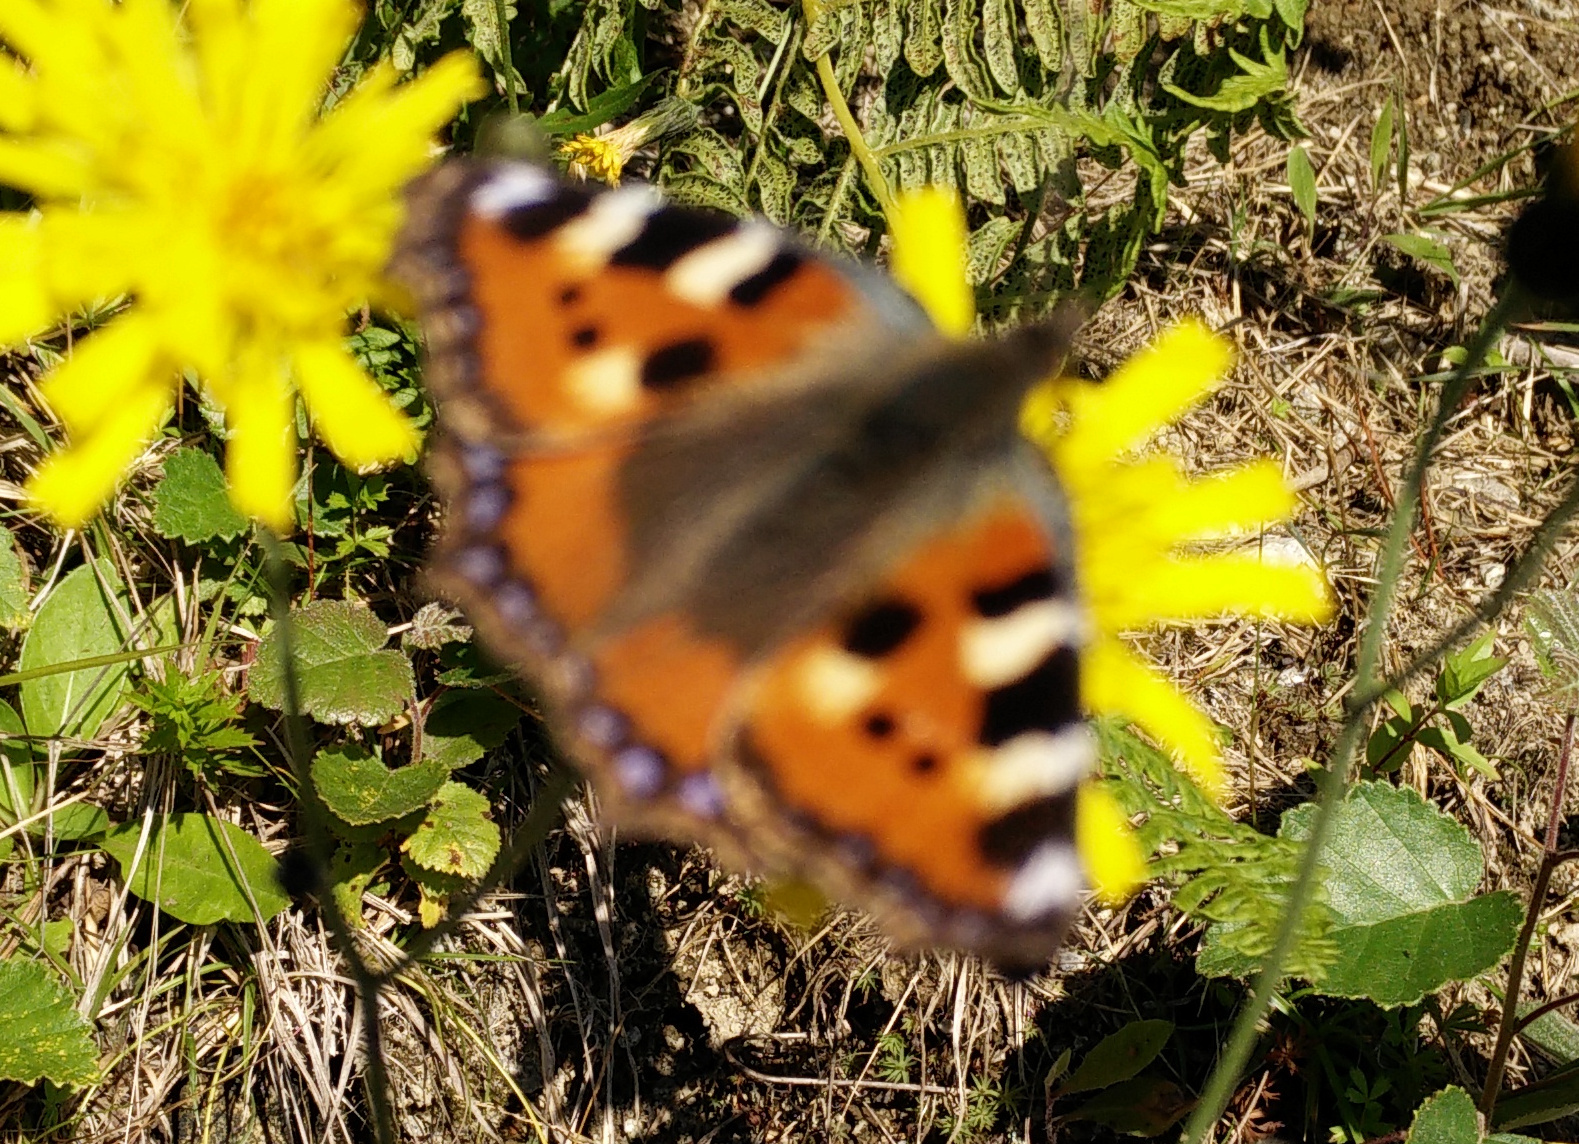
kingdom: Animalia
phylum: Arthropoda
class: Insecta
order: Lepidoptera
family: Nymphalidae
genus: Aglais
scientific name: Aglais urticae
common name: Small tortoiseshell
